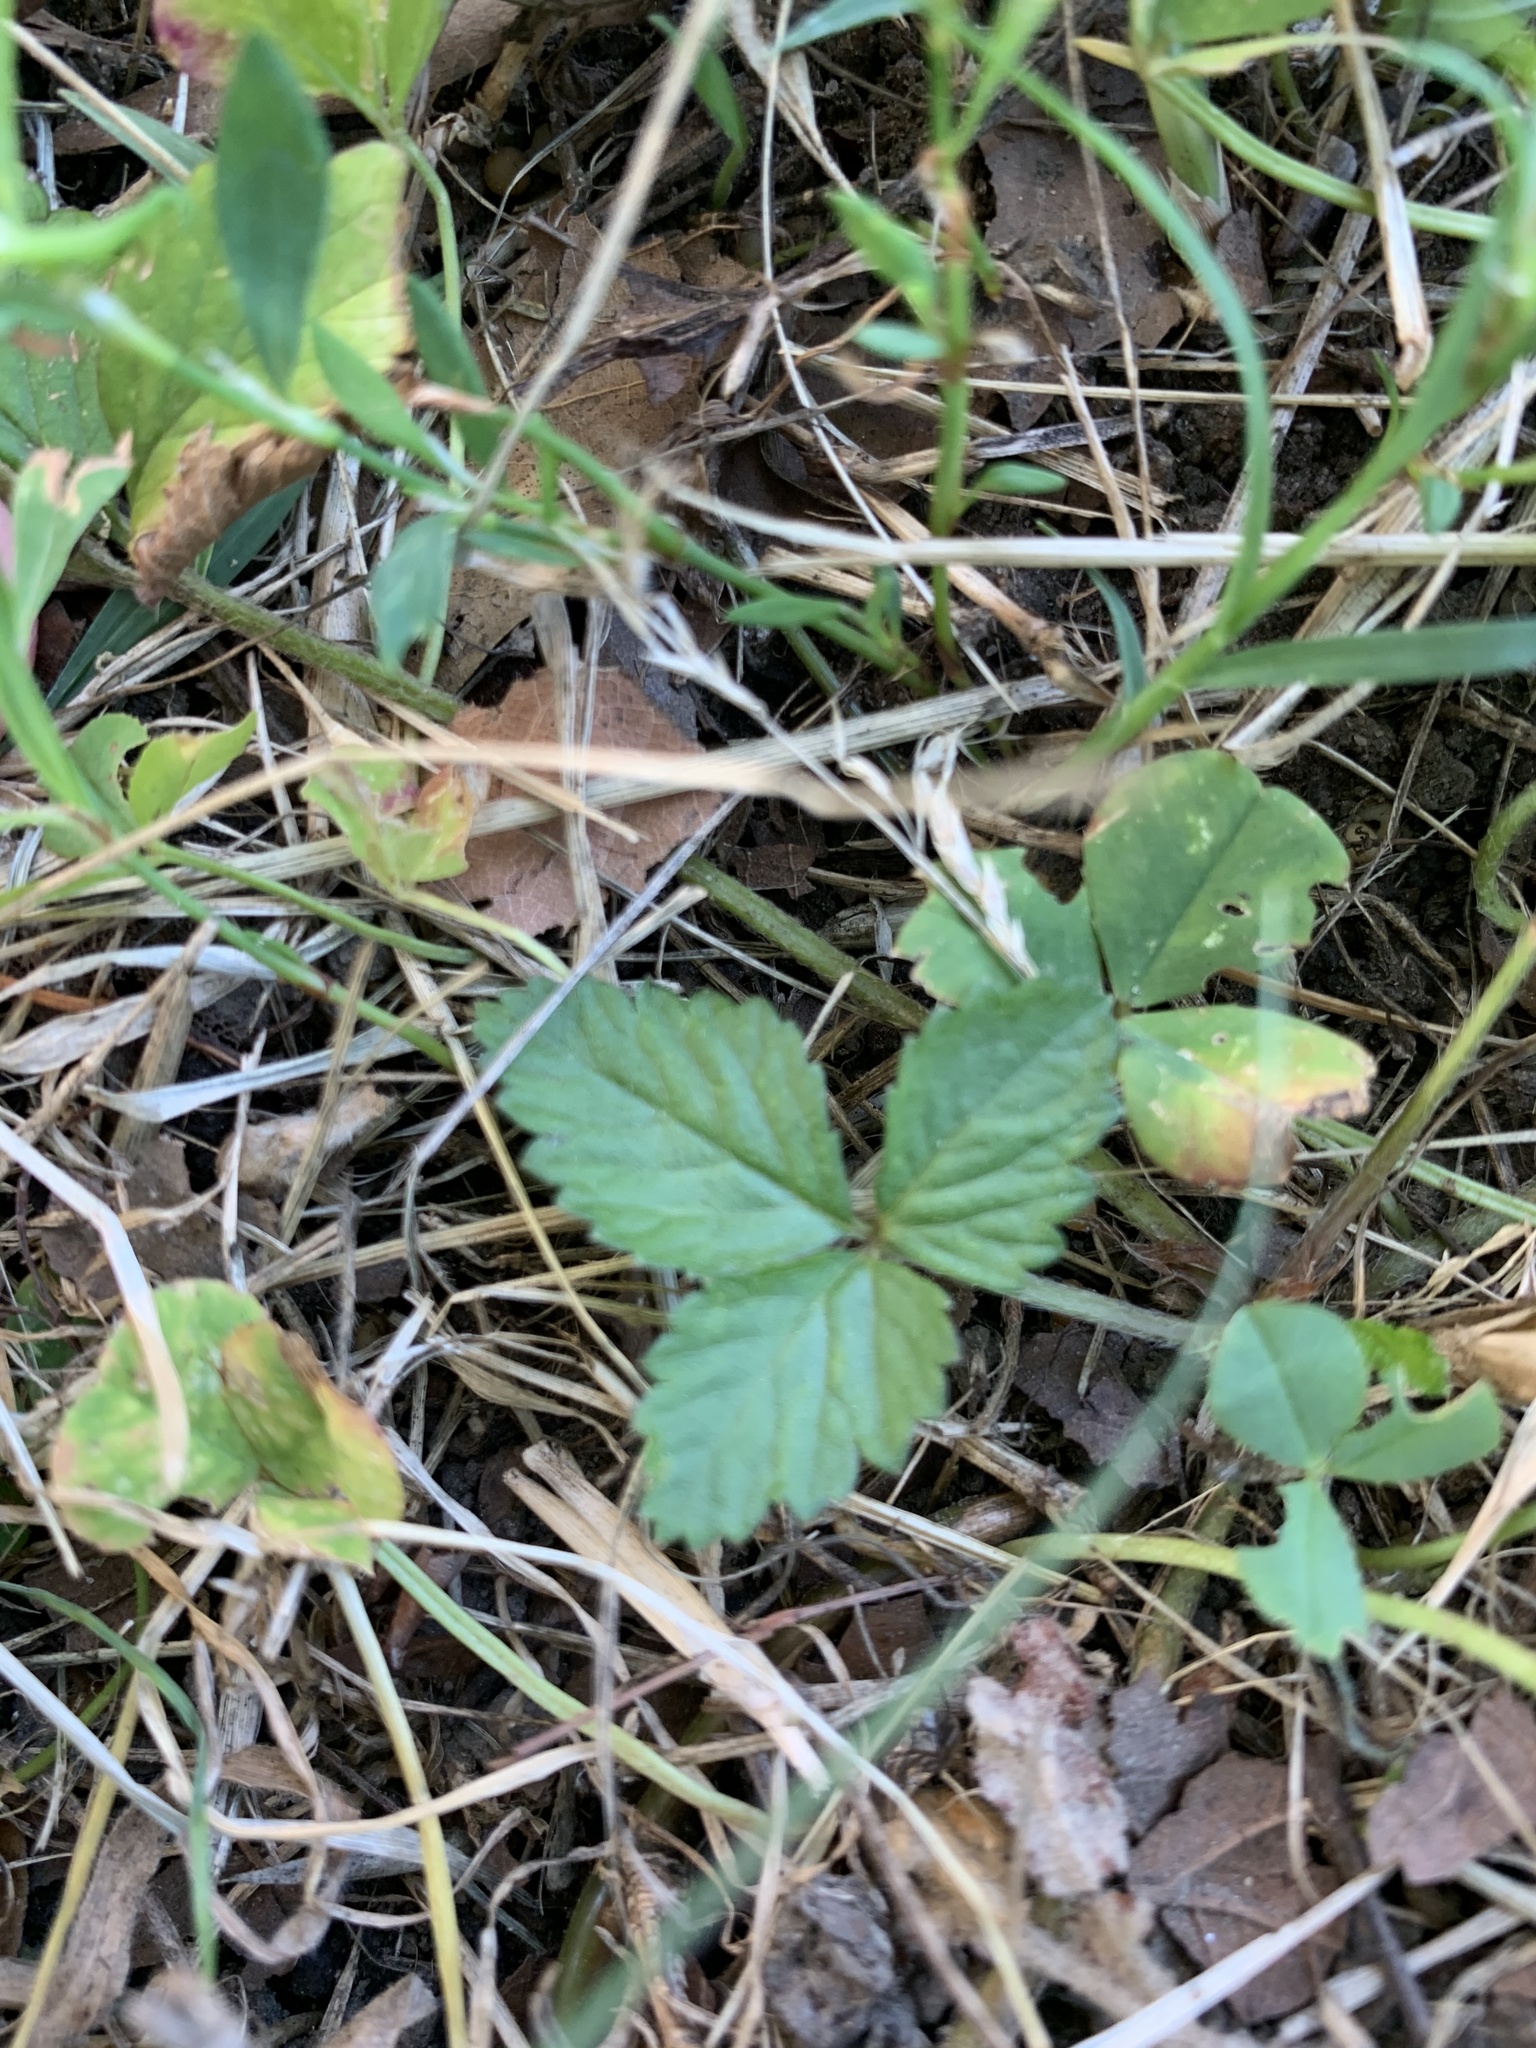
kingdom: Plantae
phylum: Tracheophyta
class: Magnoliopsida
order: Rosales
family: Rosaceae
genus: Potentilla
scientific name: Potentilla indica
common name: Yellow-flowered strawberry
